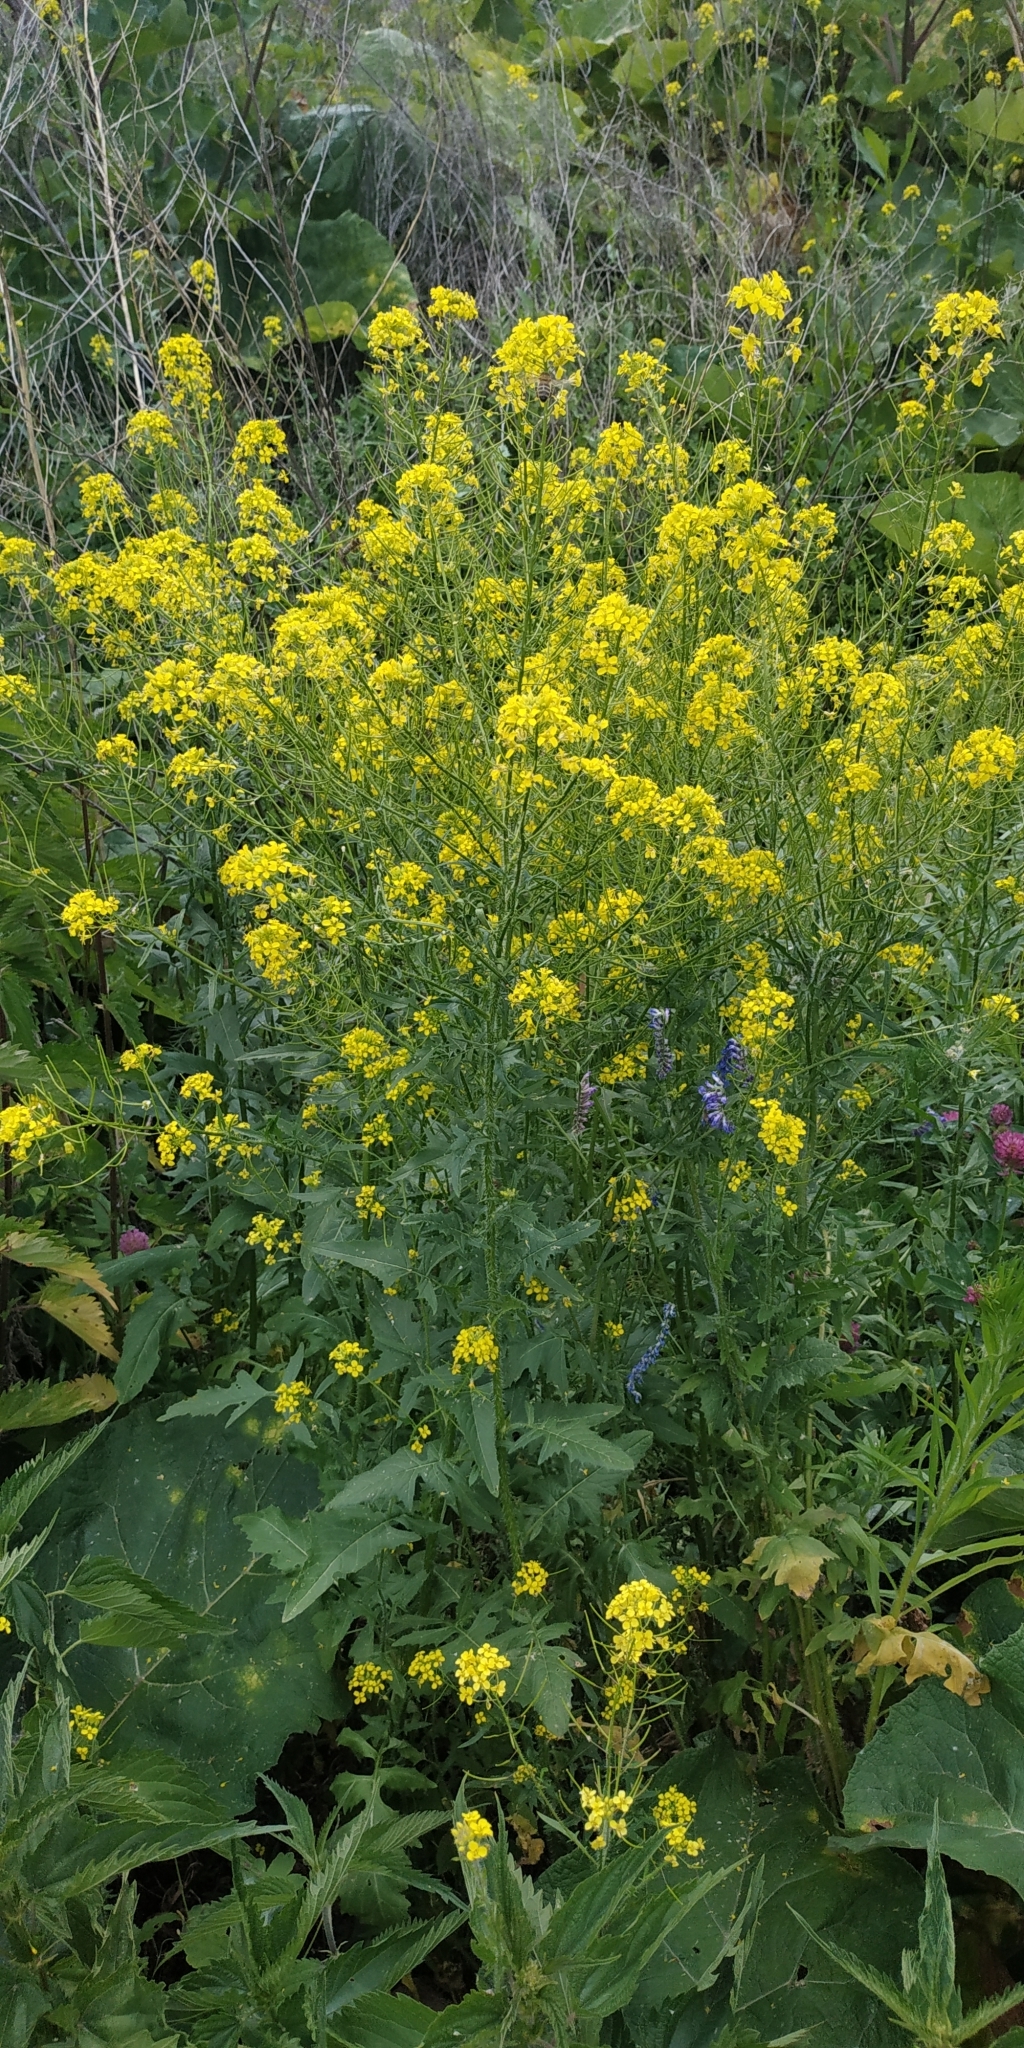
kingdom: Plantae
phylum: Tracheophyta
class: Magnoliopsida
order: Brassicales
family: Brassicaceae
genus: Sisymbrium
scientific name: Sisymbrium loeselii
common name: False london-rocket
